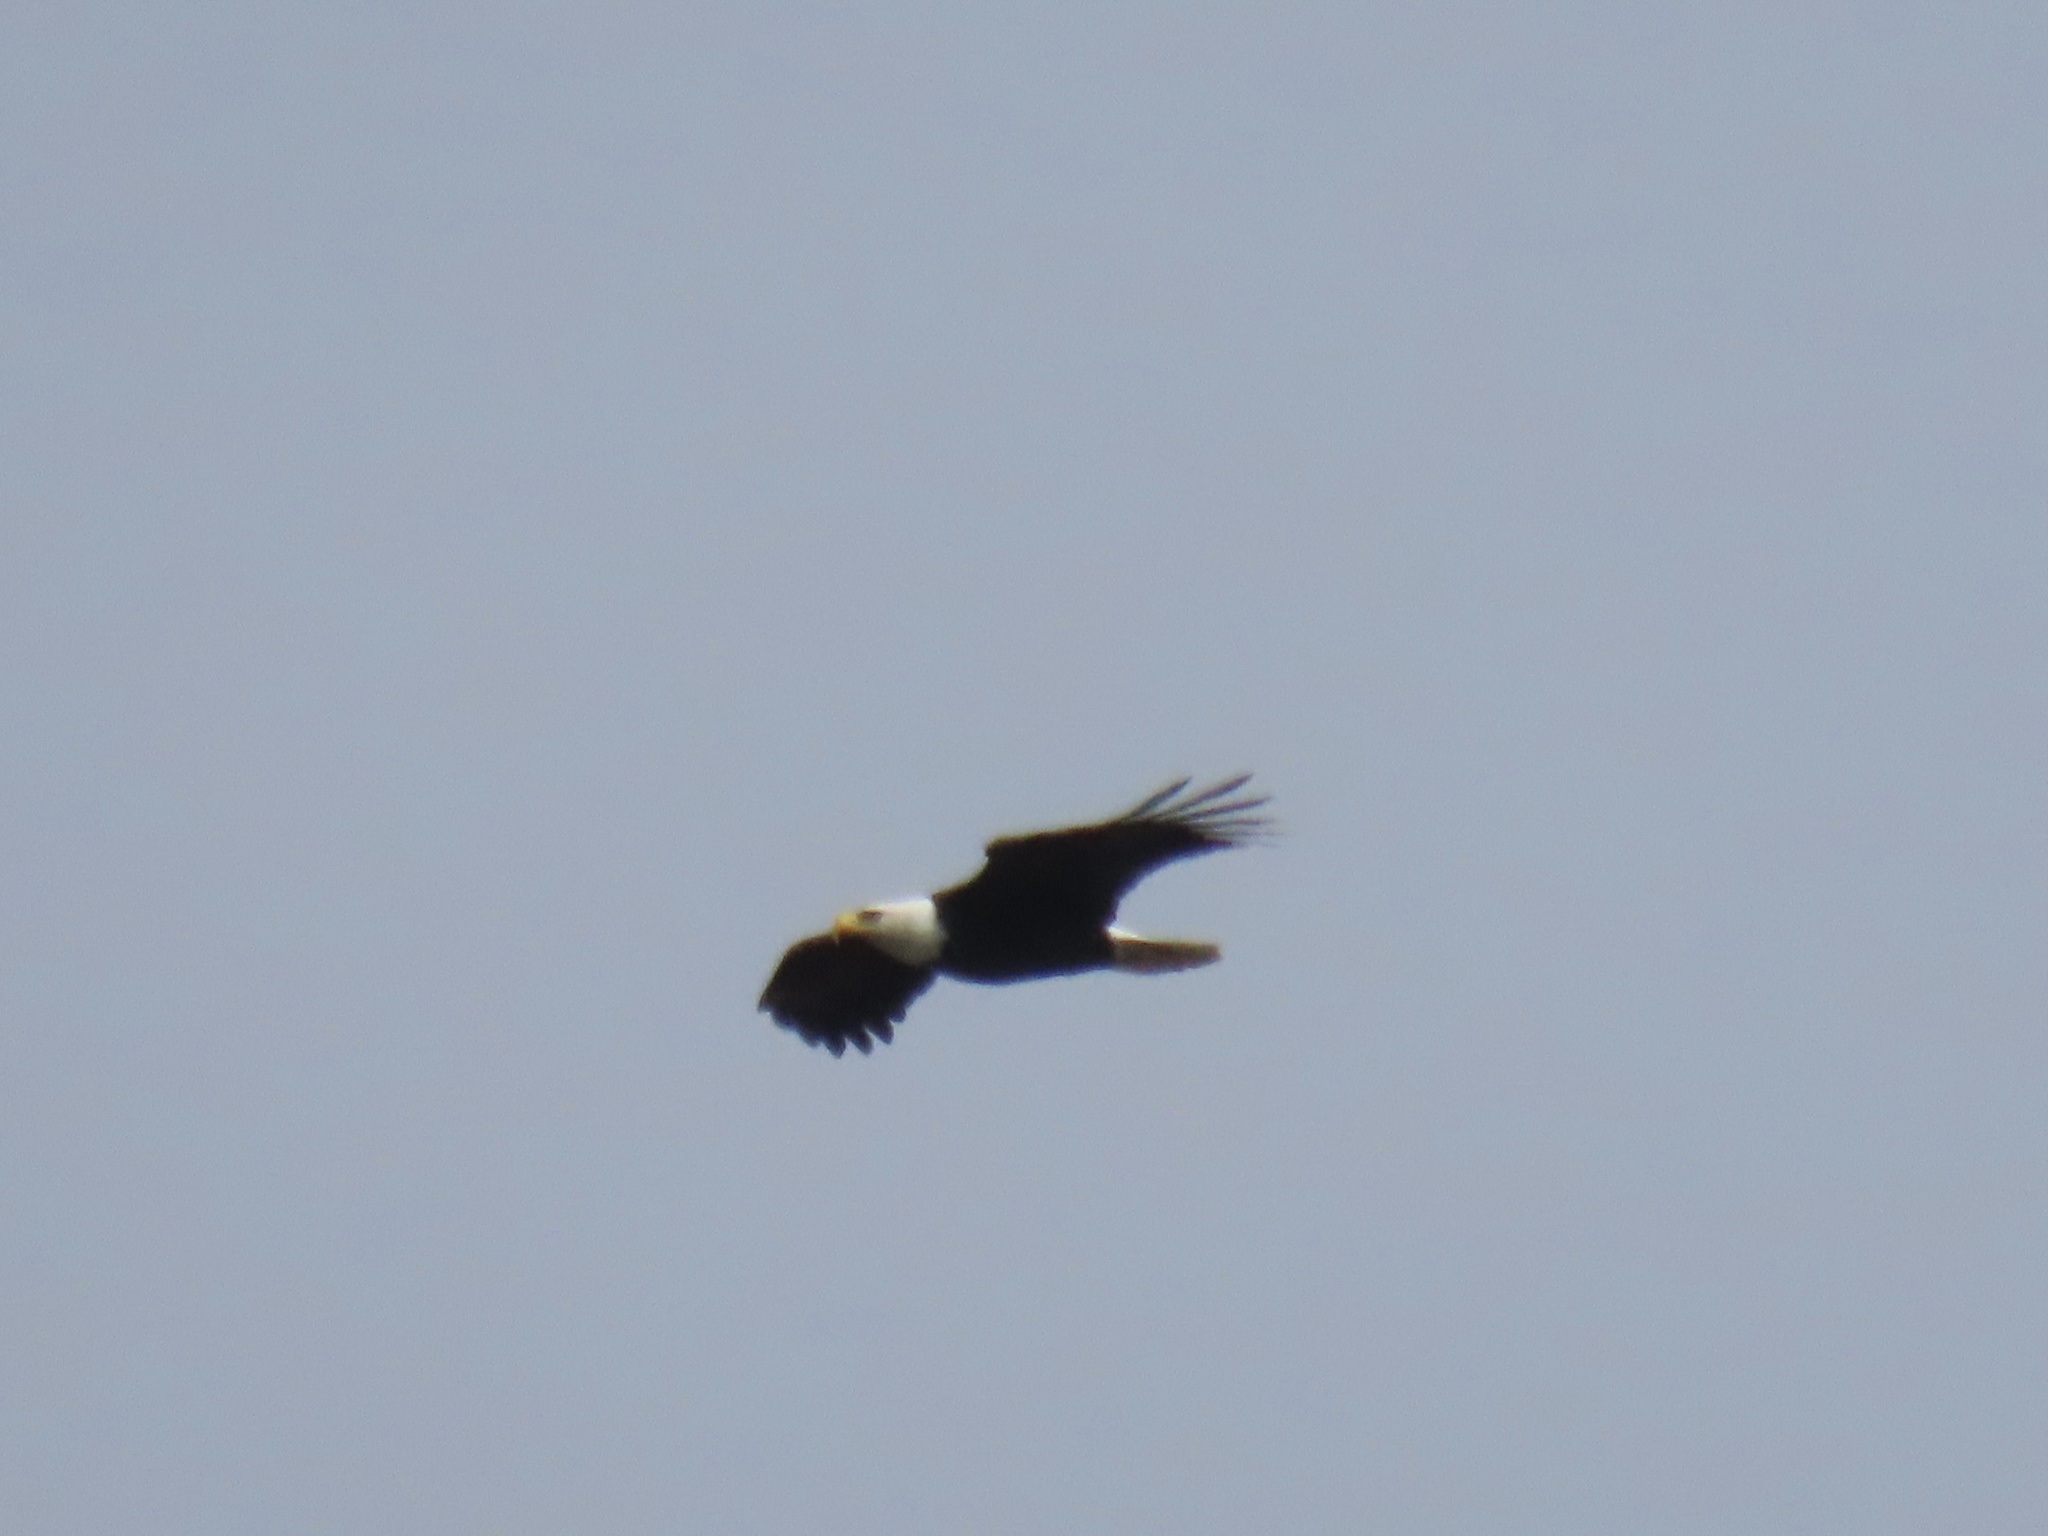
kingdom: Animalia
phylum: Chordata
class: Aves
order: Accipitriformes
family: Accipitridae
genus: Haliaeetus
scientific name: Haliaeetus leucocephalus
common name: Bald eagle
